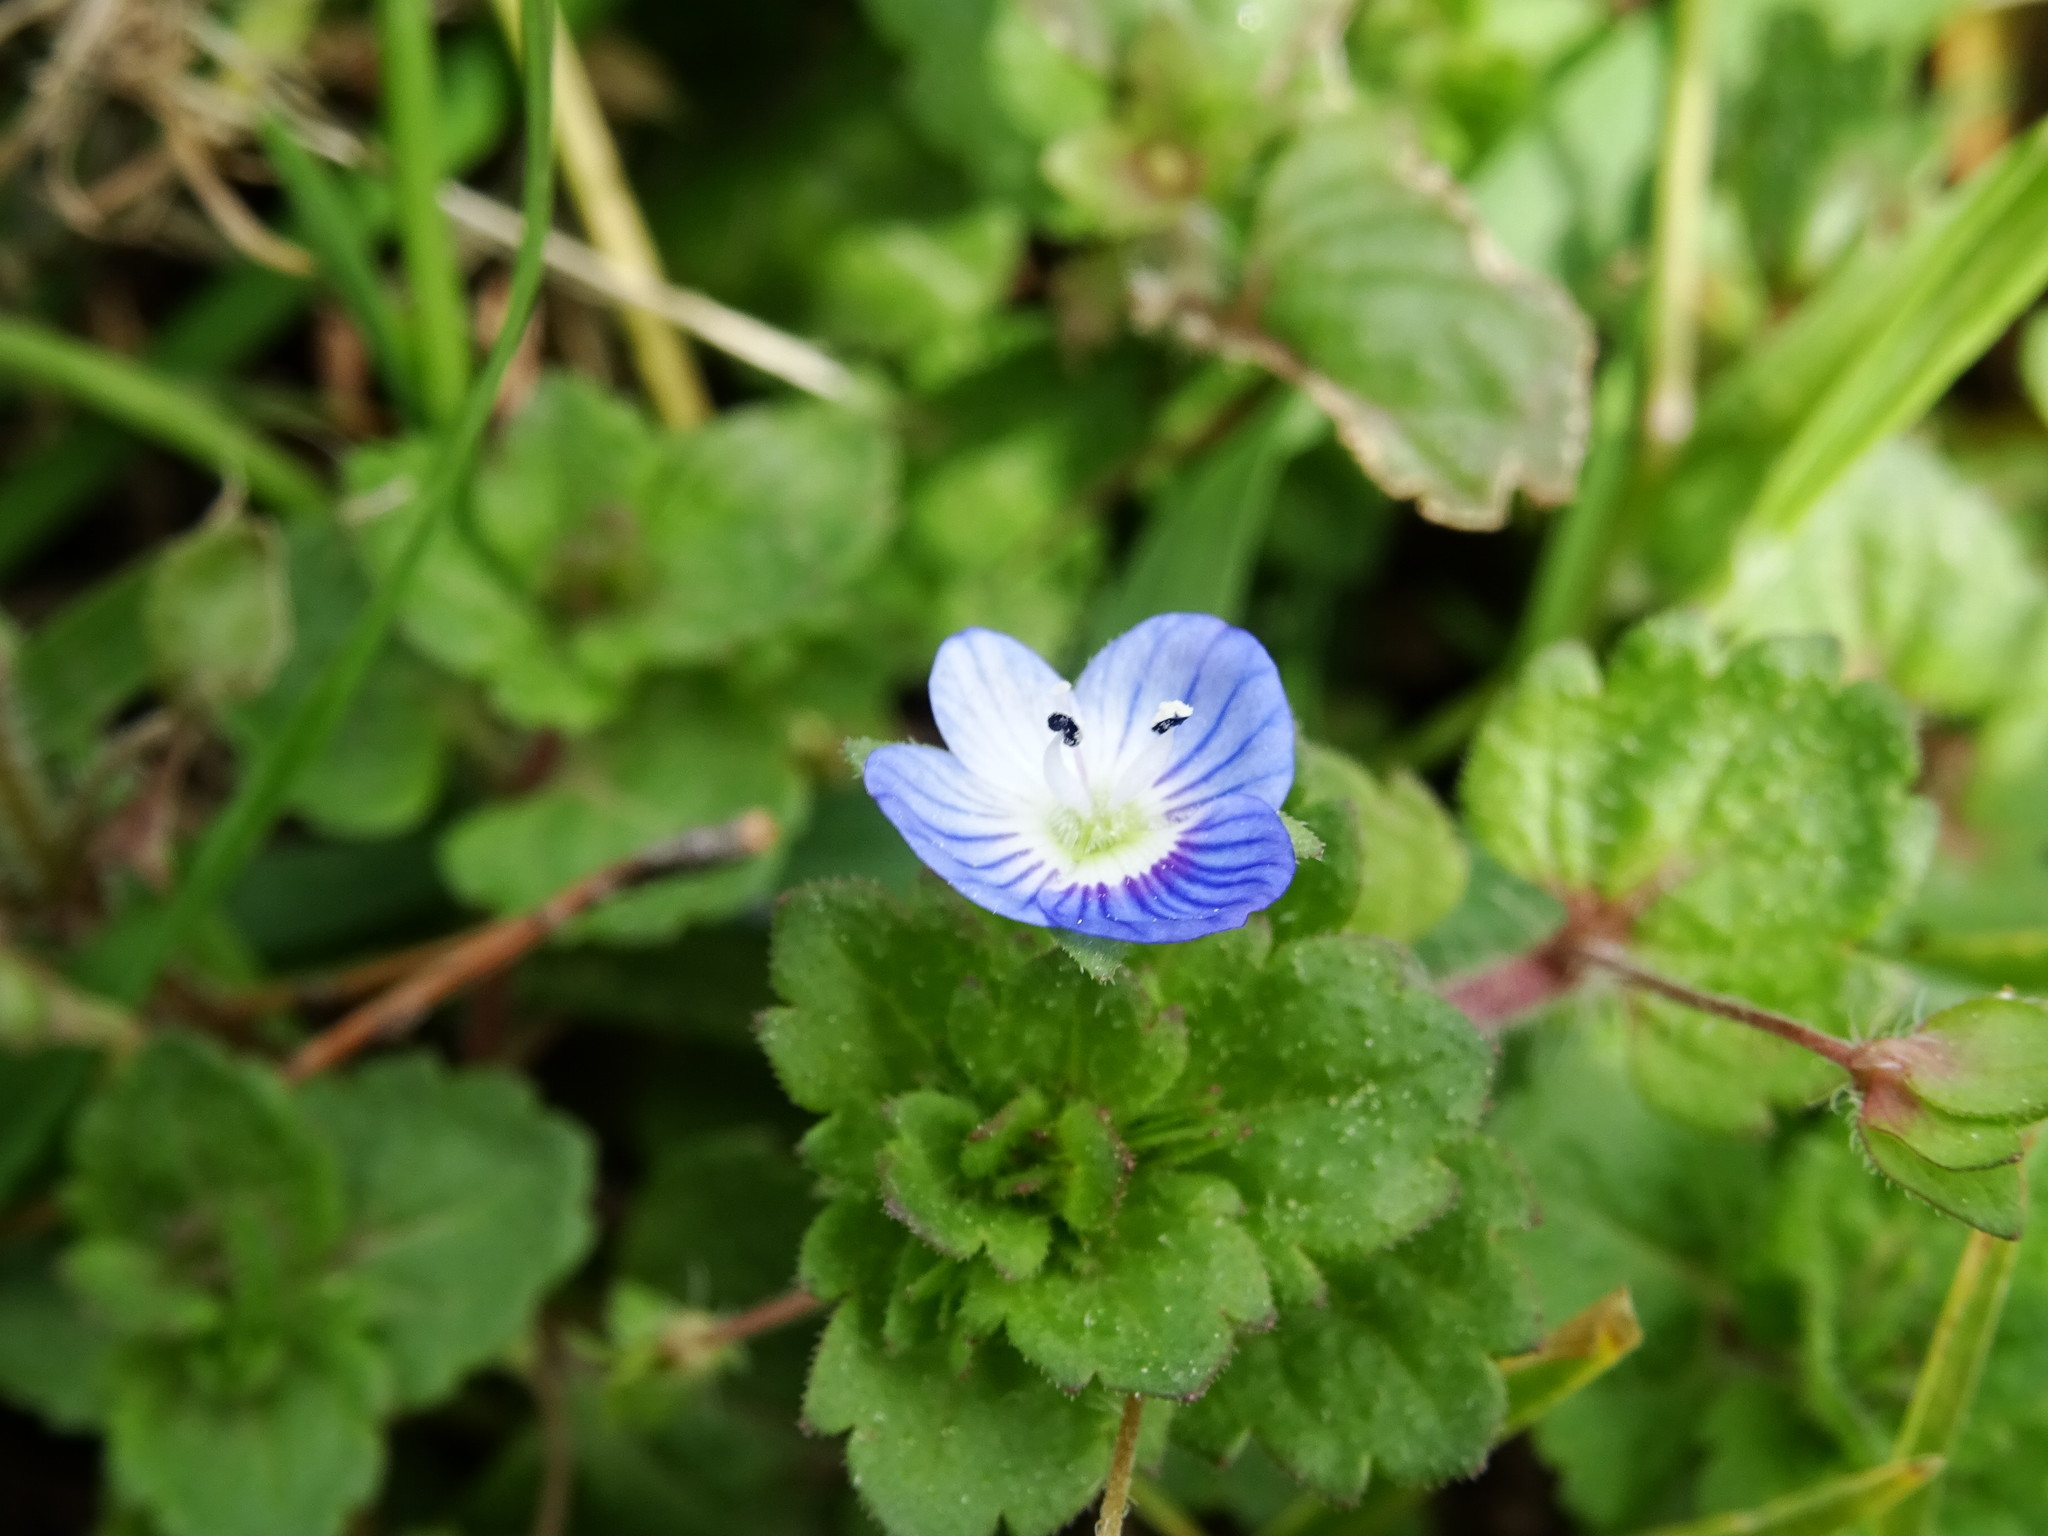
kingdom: Plantae
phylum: Tracheophyta
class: Magnoliopsida
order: Lamiales
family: Plantaginaceae
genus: Veronica
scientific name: Veronica persica
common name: Common field-speedwell
